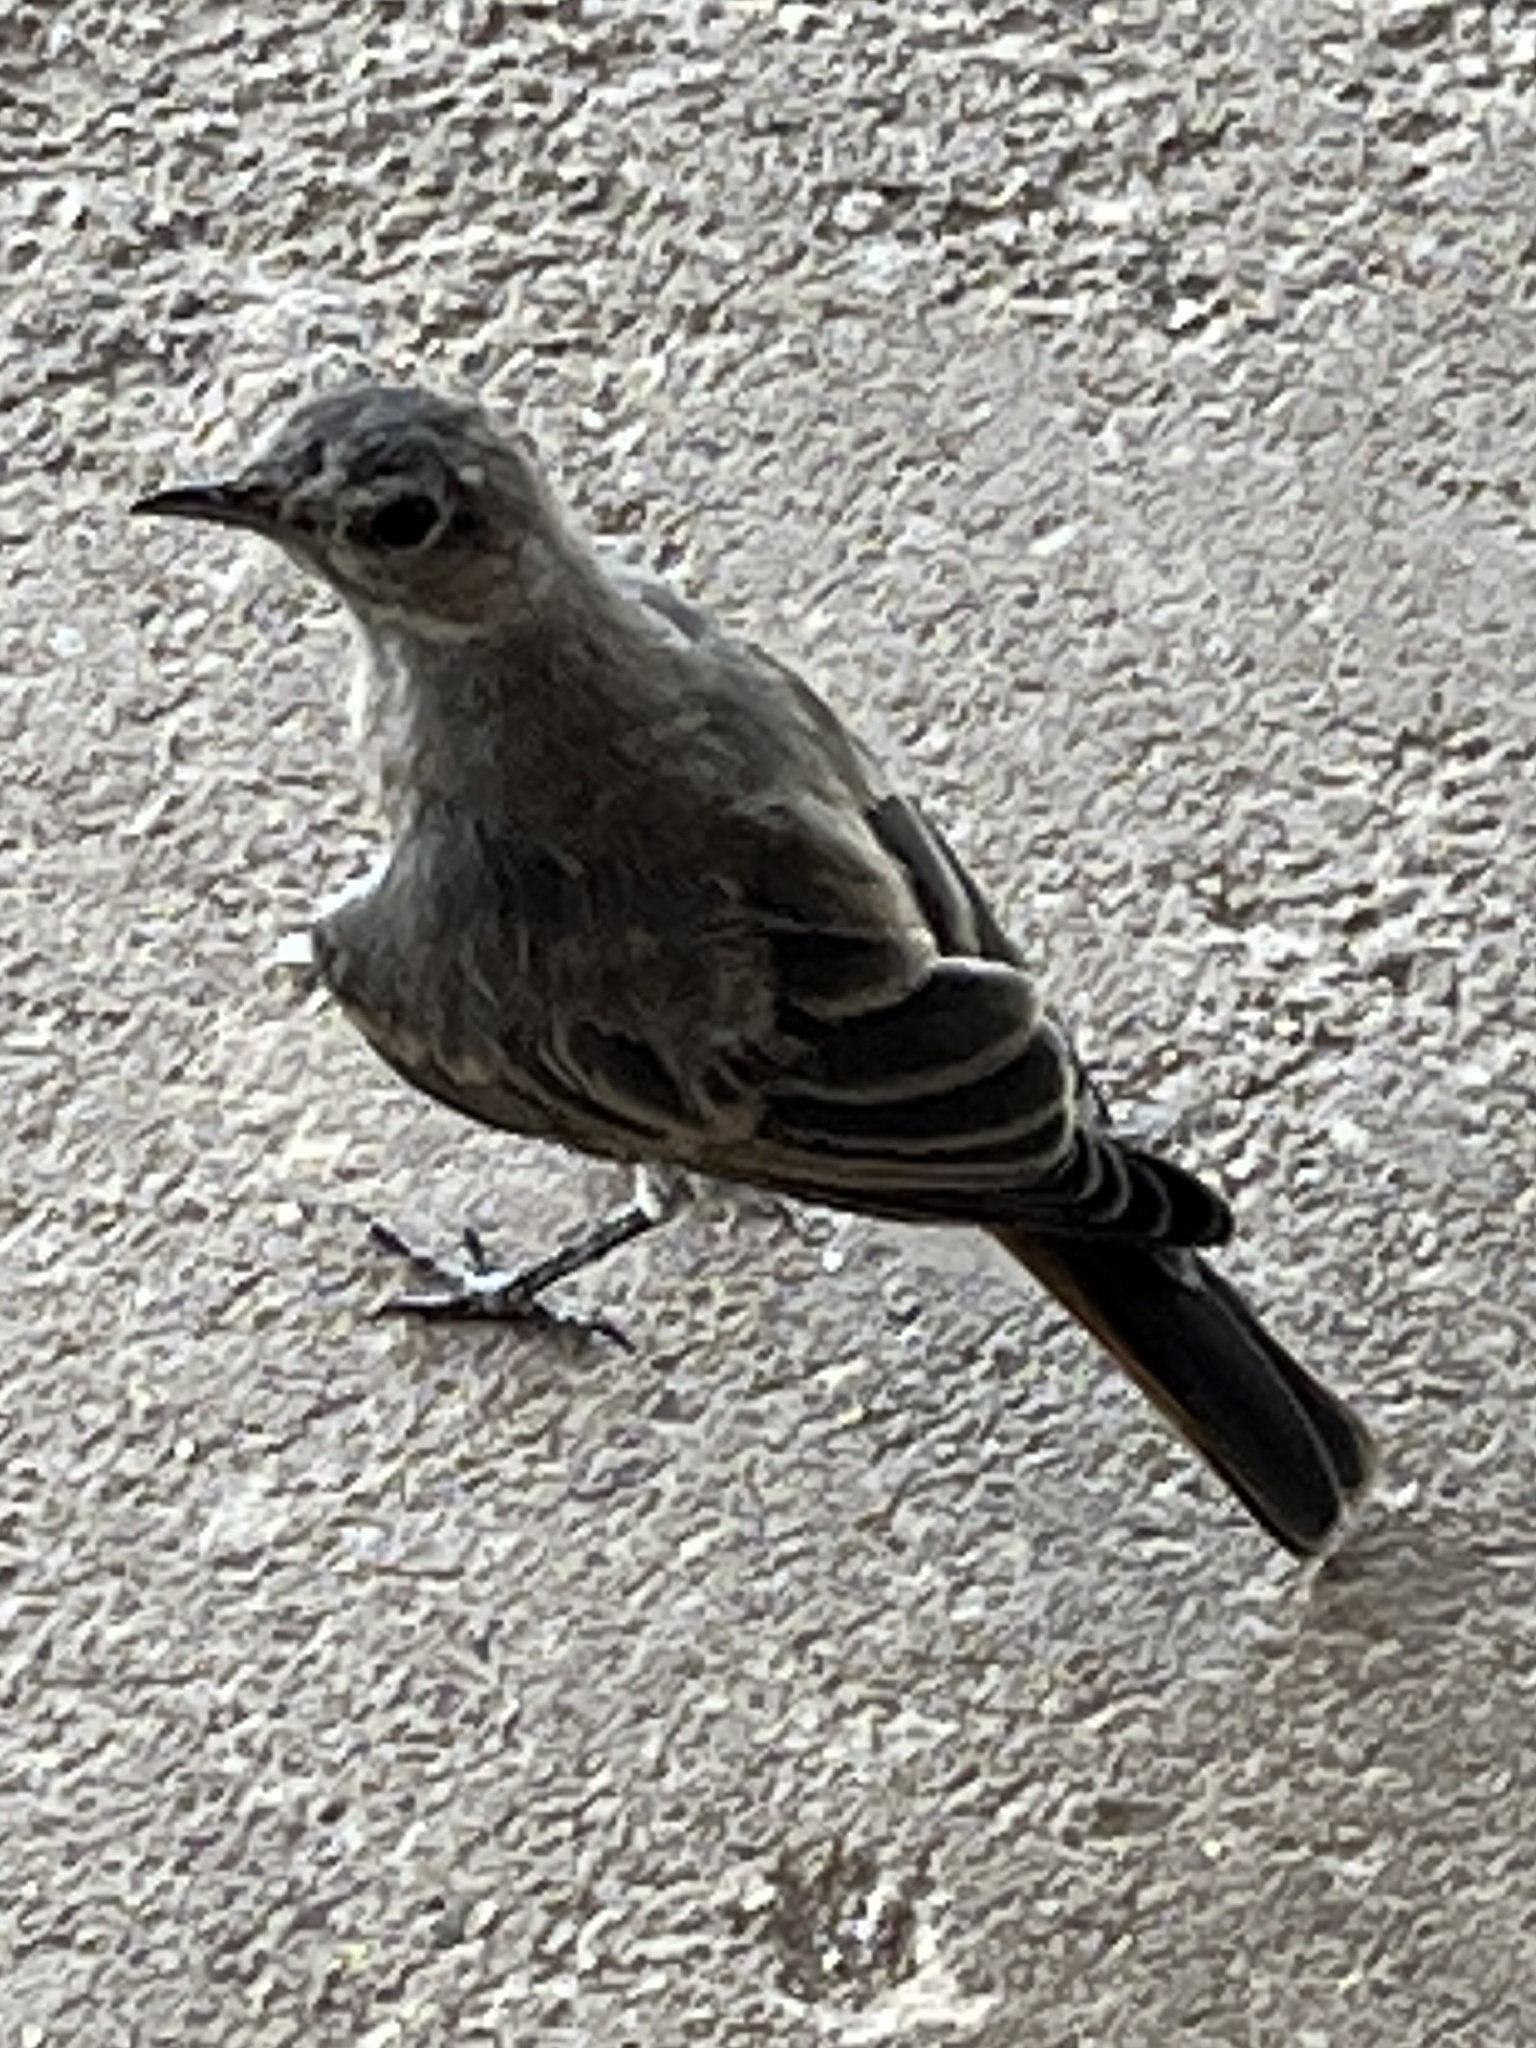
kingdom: Animalia
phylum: Chordata
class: Aves
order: Passeriformes
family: Muscicapidae
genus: Oenanthe
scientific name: Oenanthe familiaris
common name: Familiar chat
